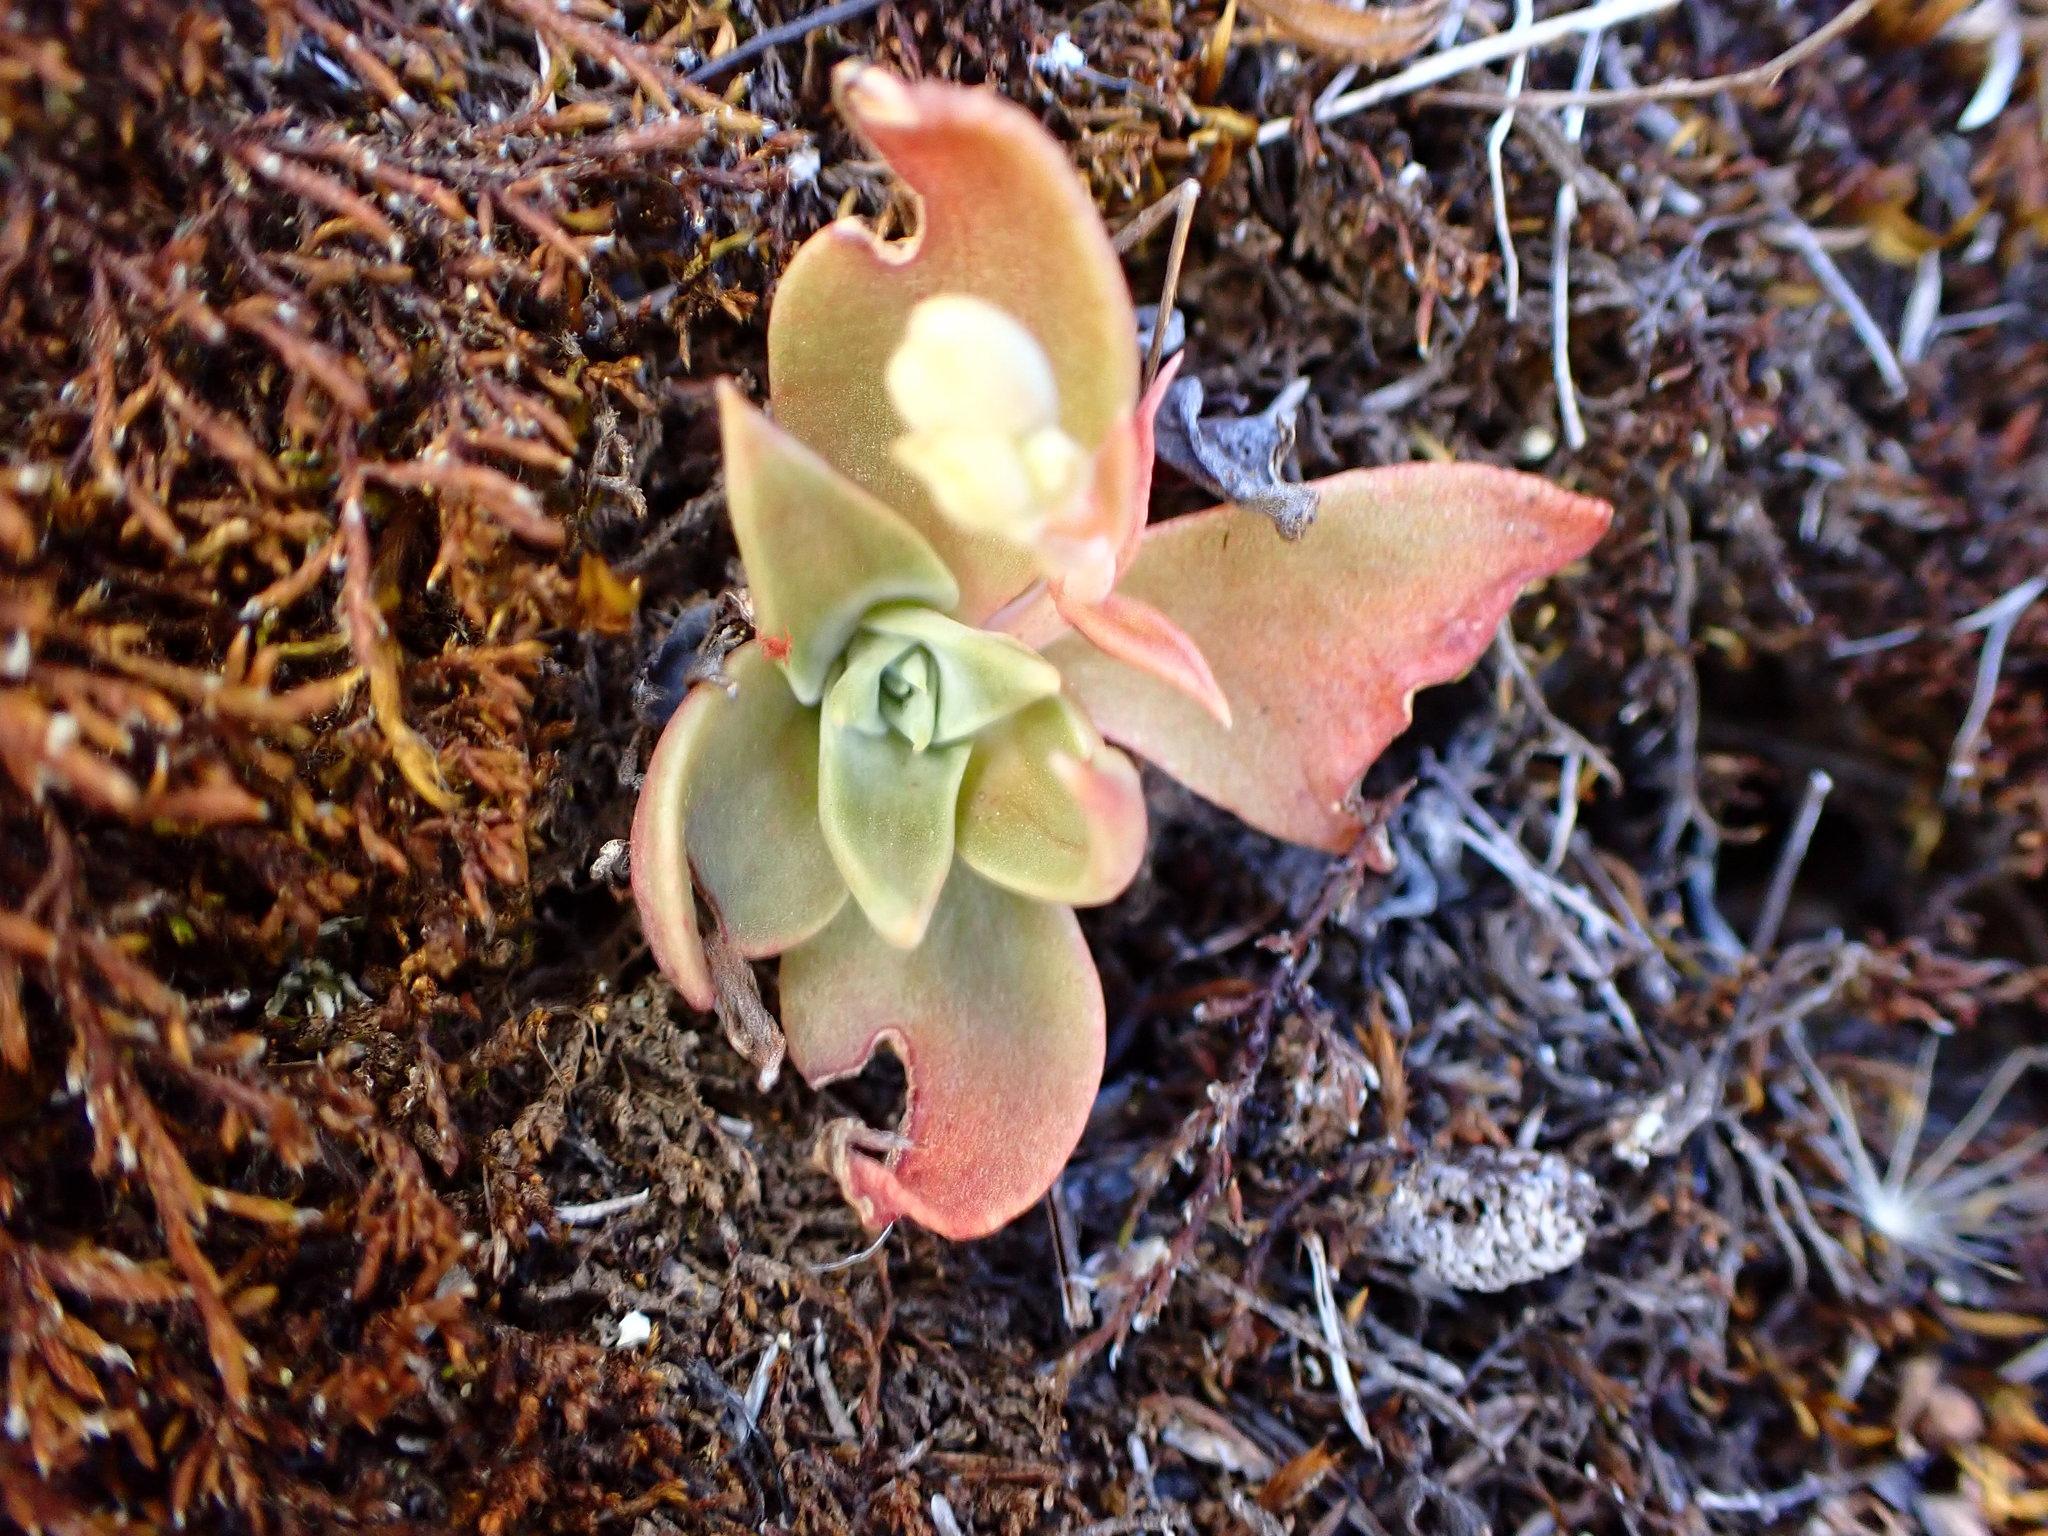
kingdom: Plantae
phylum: Tracheophyta
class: Magnoliopsida
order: Saxifragales
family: Crassulaceae
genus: Dudleya
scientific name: Dudleya cymosa
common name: Canyon dudleya
